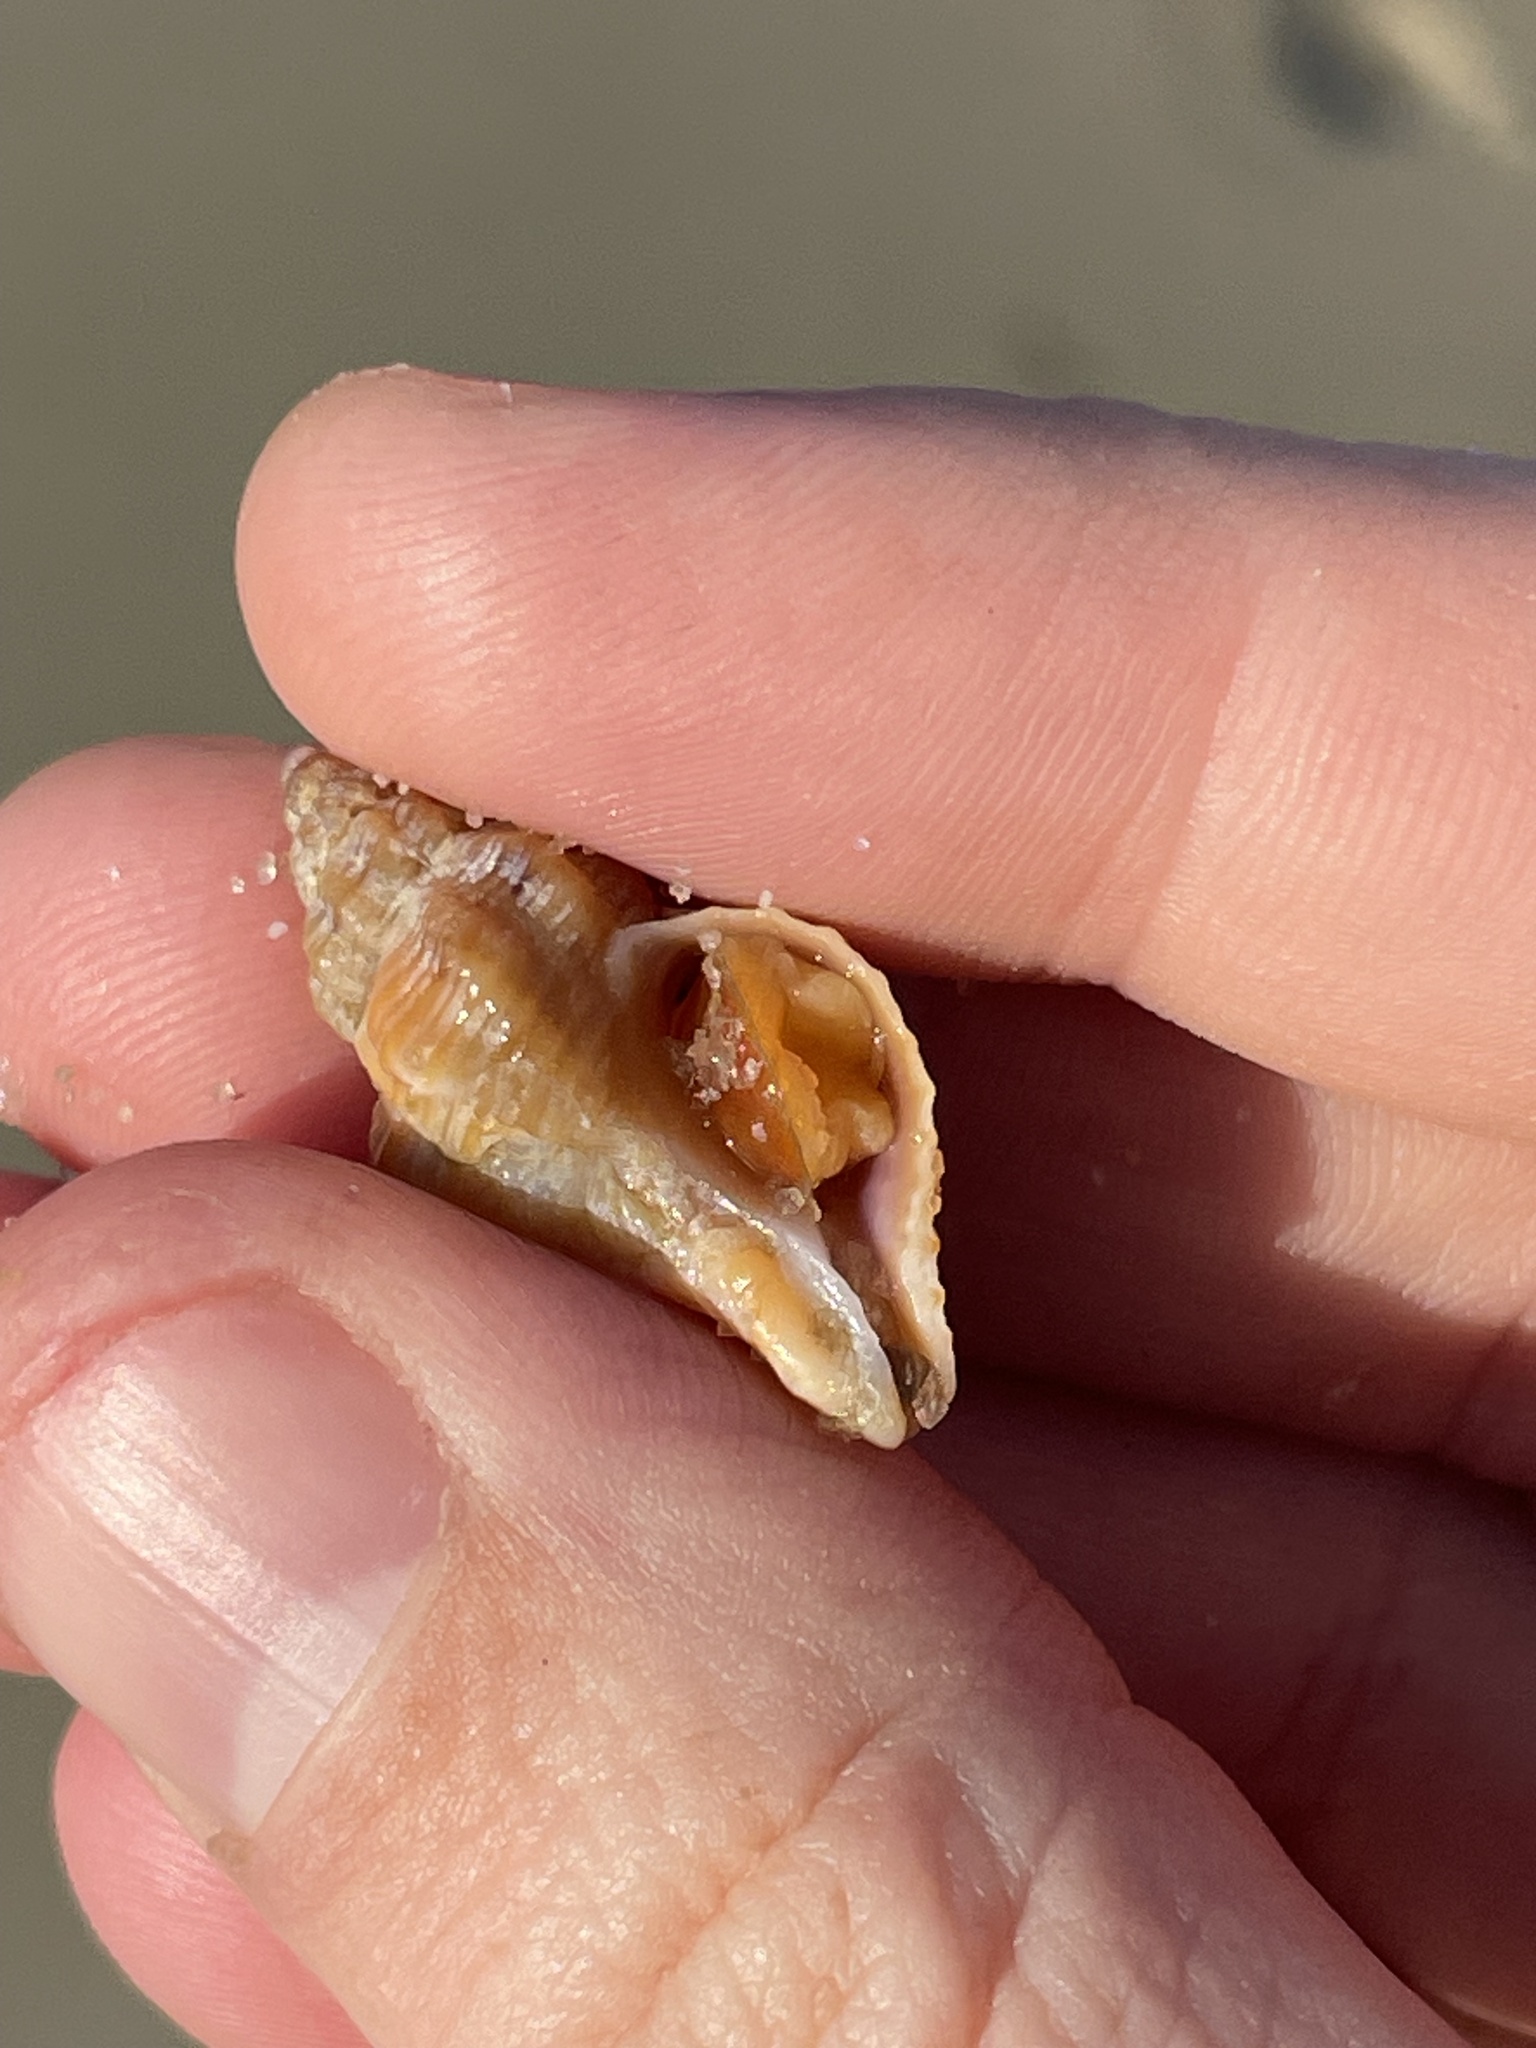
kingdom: Animalia
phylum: Mollusca
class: Gastropoda
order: Neogastropoda
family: Muricidae
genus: Urosalpinx
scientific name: Urosalpinx cinerea
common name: American sting winkle
